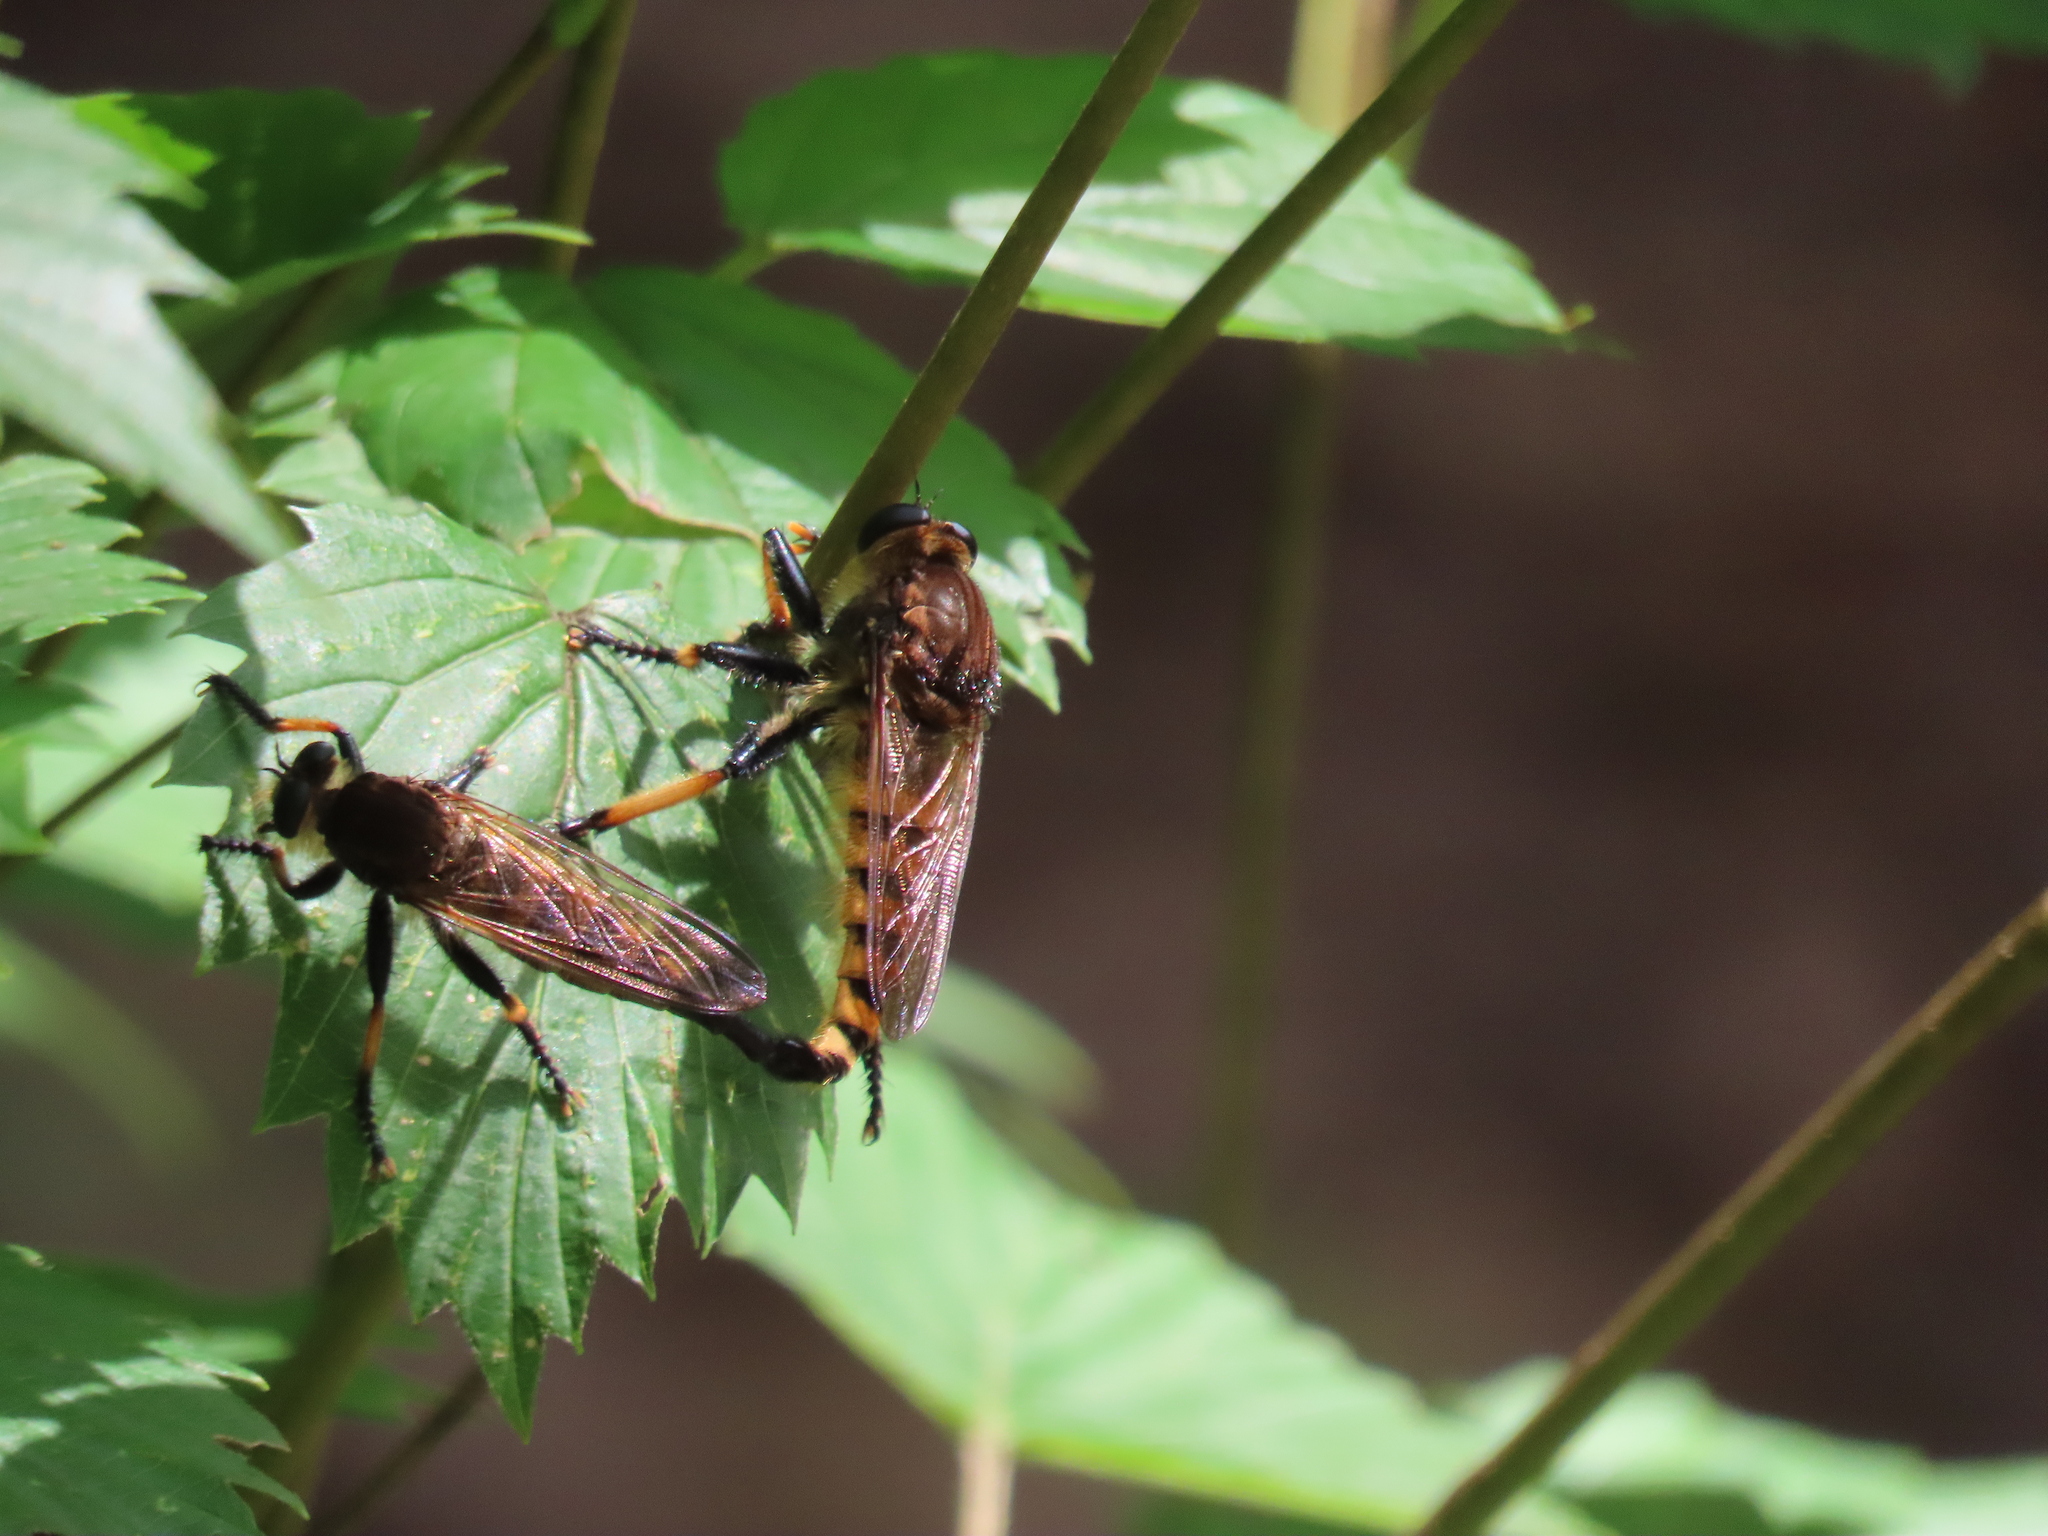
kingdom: Animalia
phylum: Arthropoda
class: Insecta
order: Diptera
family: Asilidae
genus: Promachus
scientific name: Promachus rufipes
